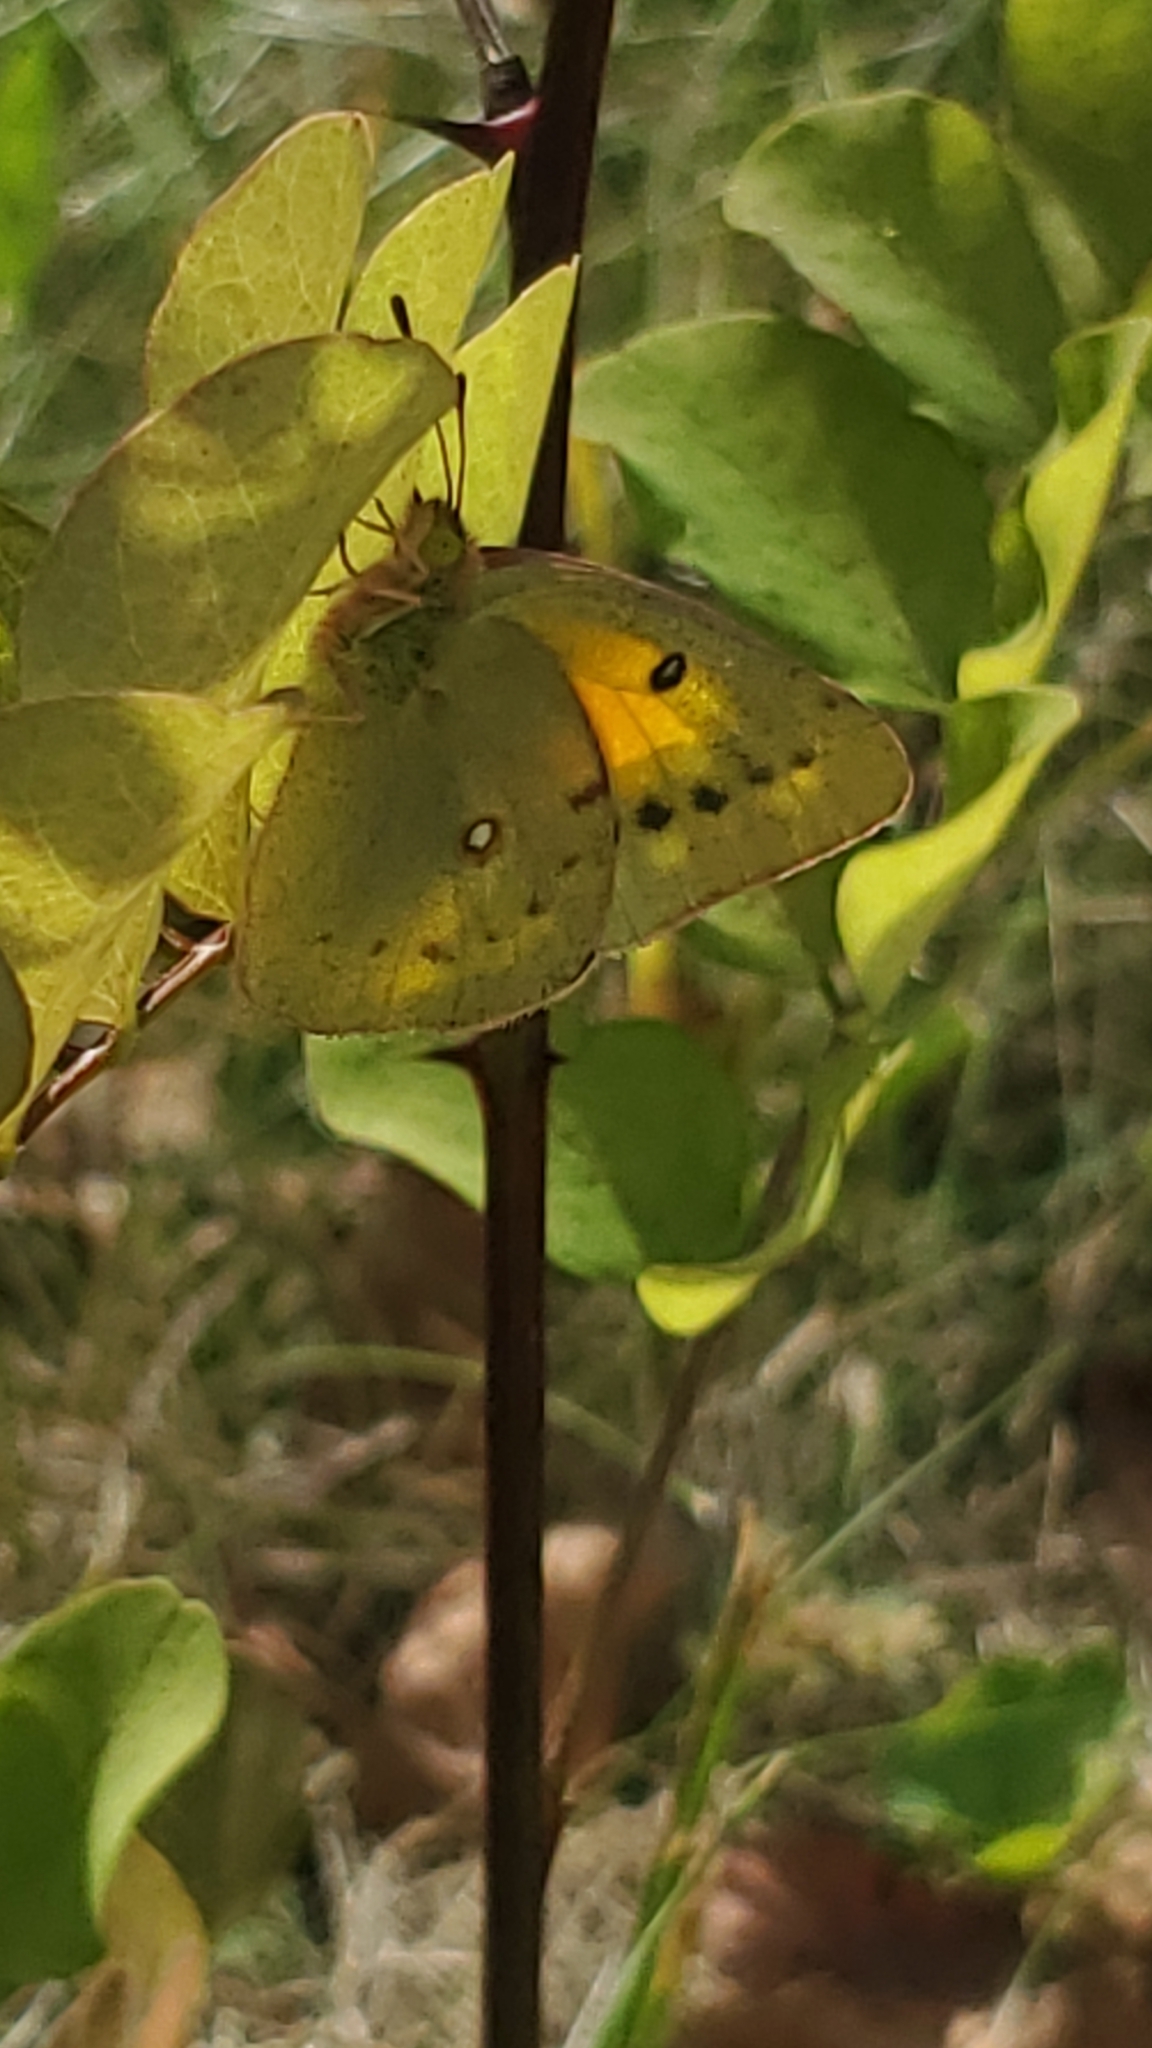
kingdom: Animalia
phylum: Arthropoda
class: Insecta
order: Lepidoptera
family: Pieridae
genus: Colias
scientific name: Colias eurytheme
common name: Alfalfa butterfly
